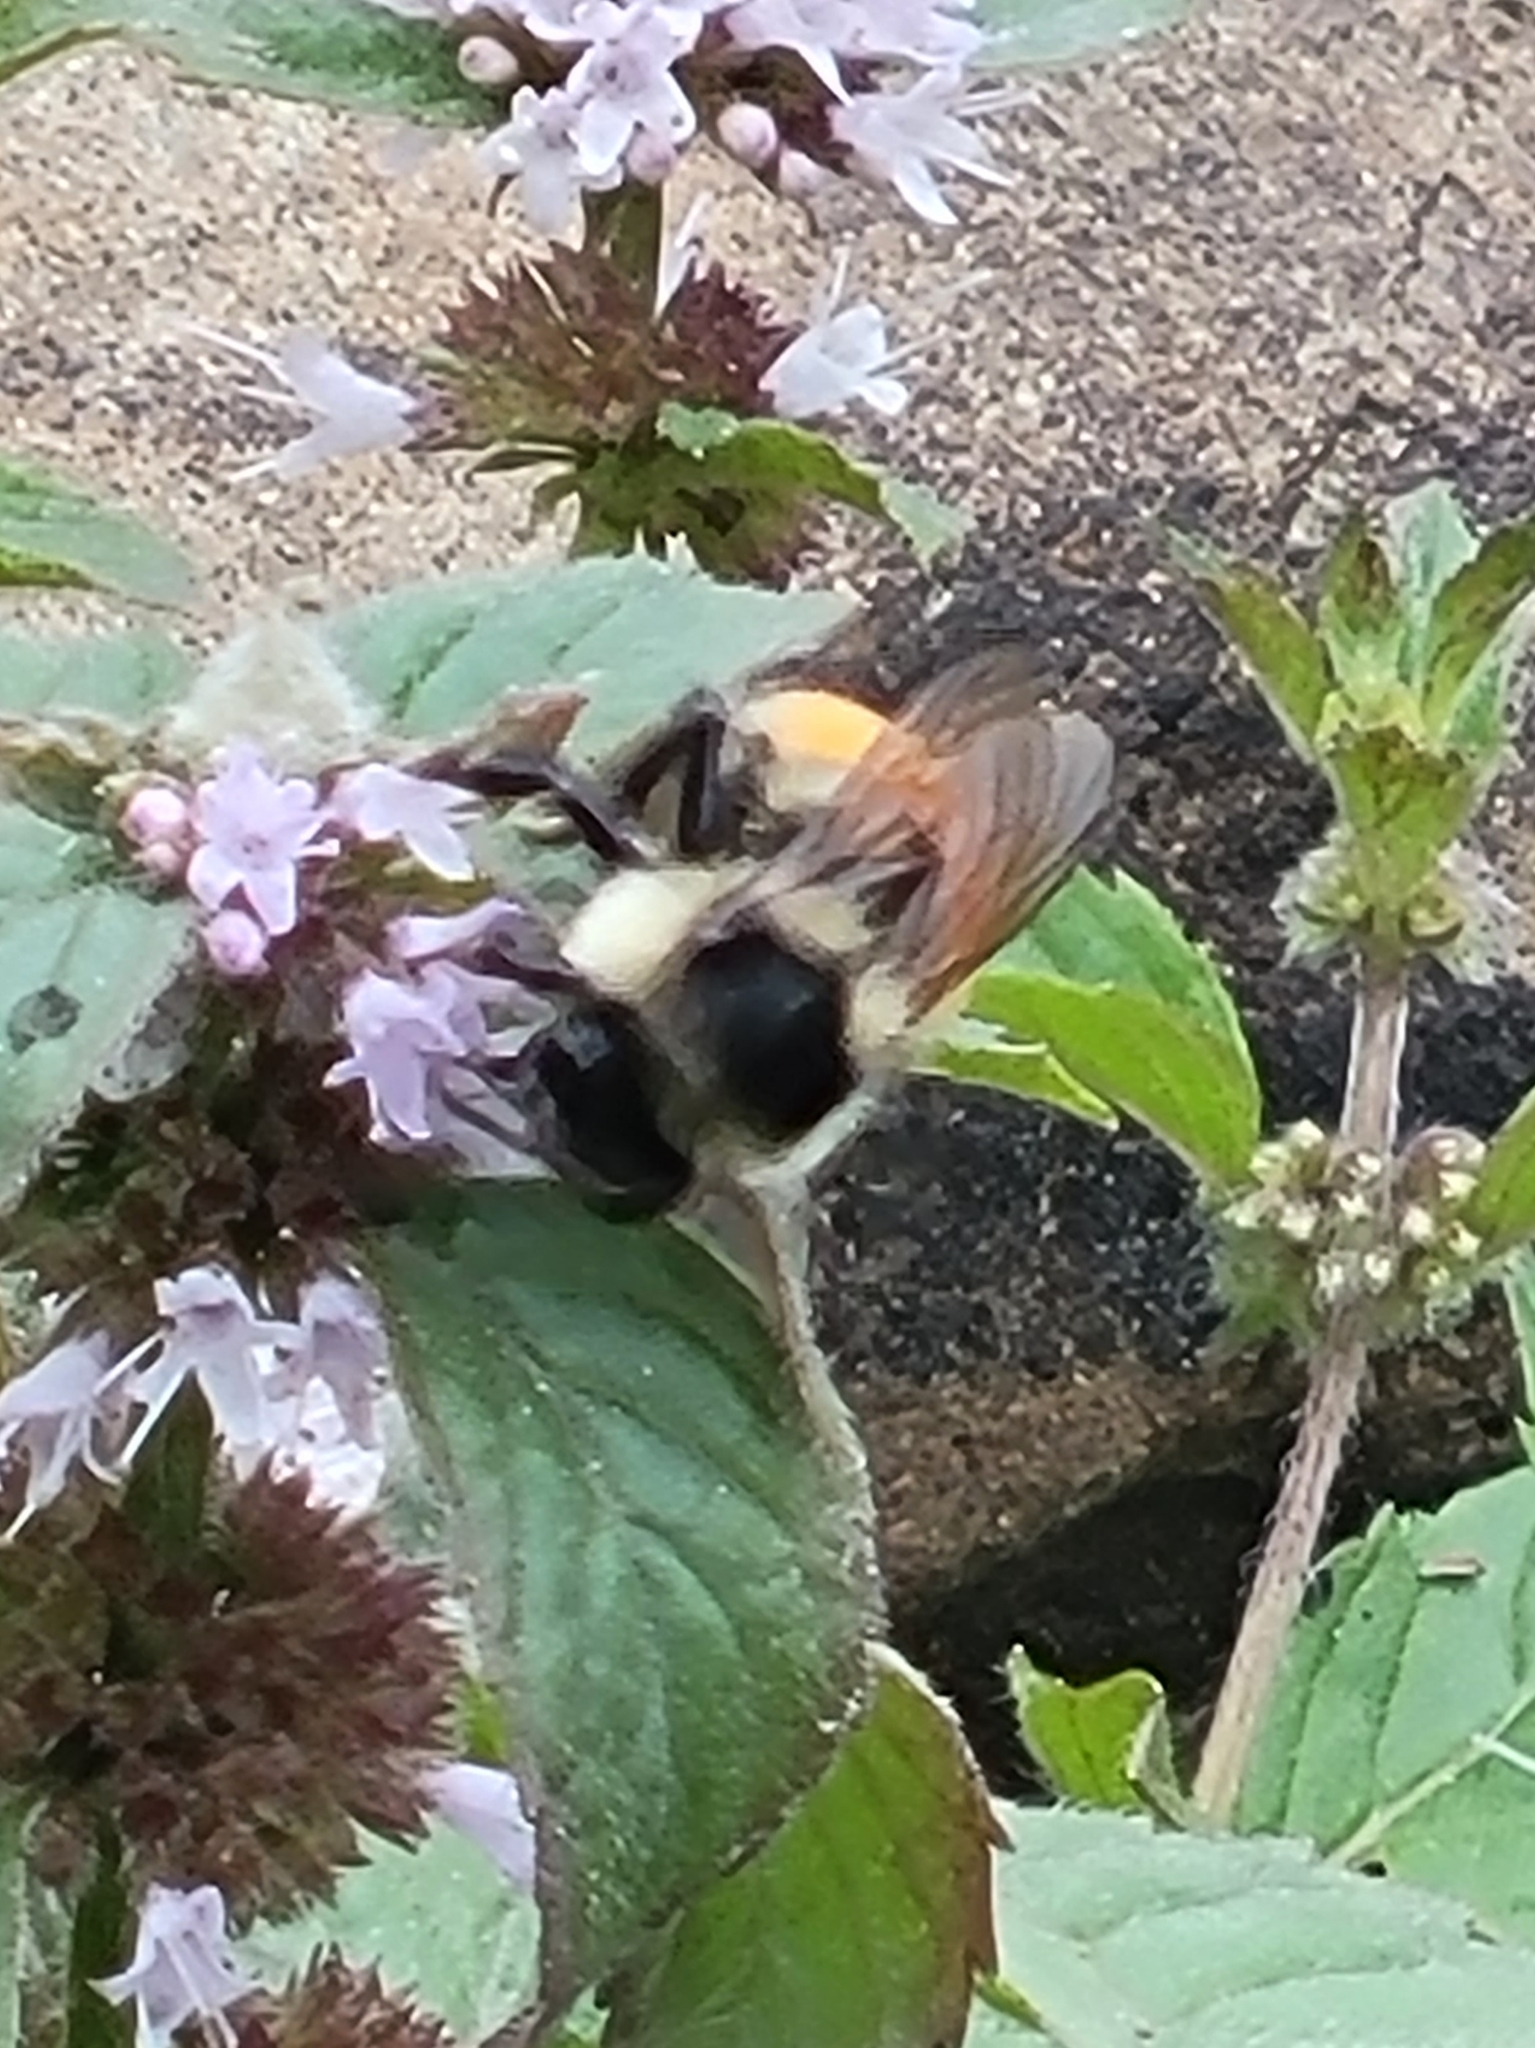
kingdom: Animalia
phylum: Arthropoda
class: Insecta
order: Hymenoptera
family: Apidae
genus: Bombus
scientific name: Bombus ternarius
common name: Tri-colored bumble bee
